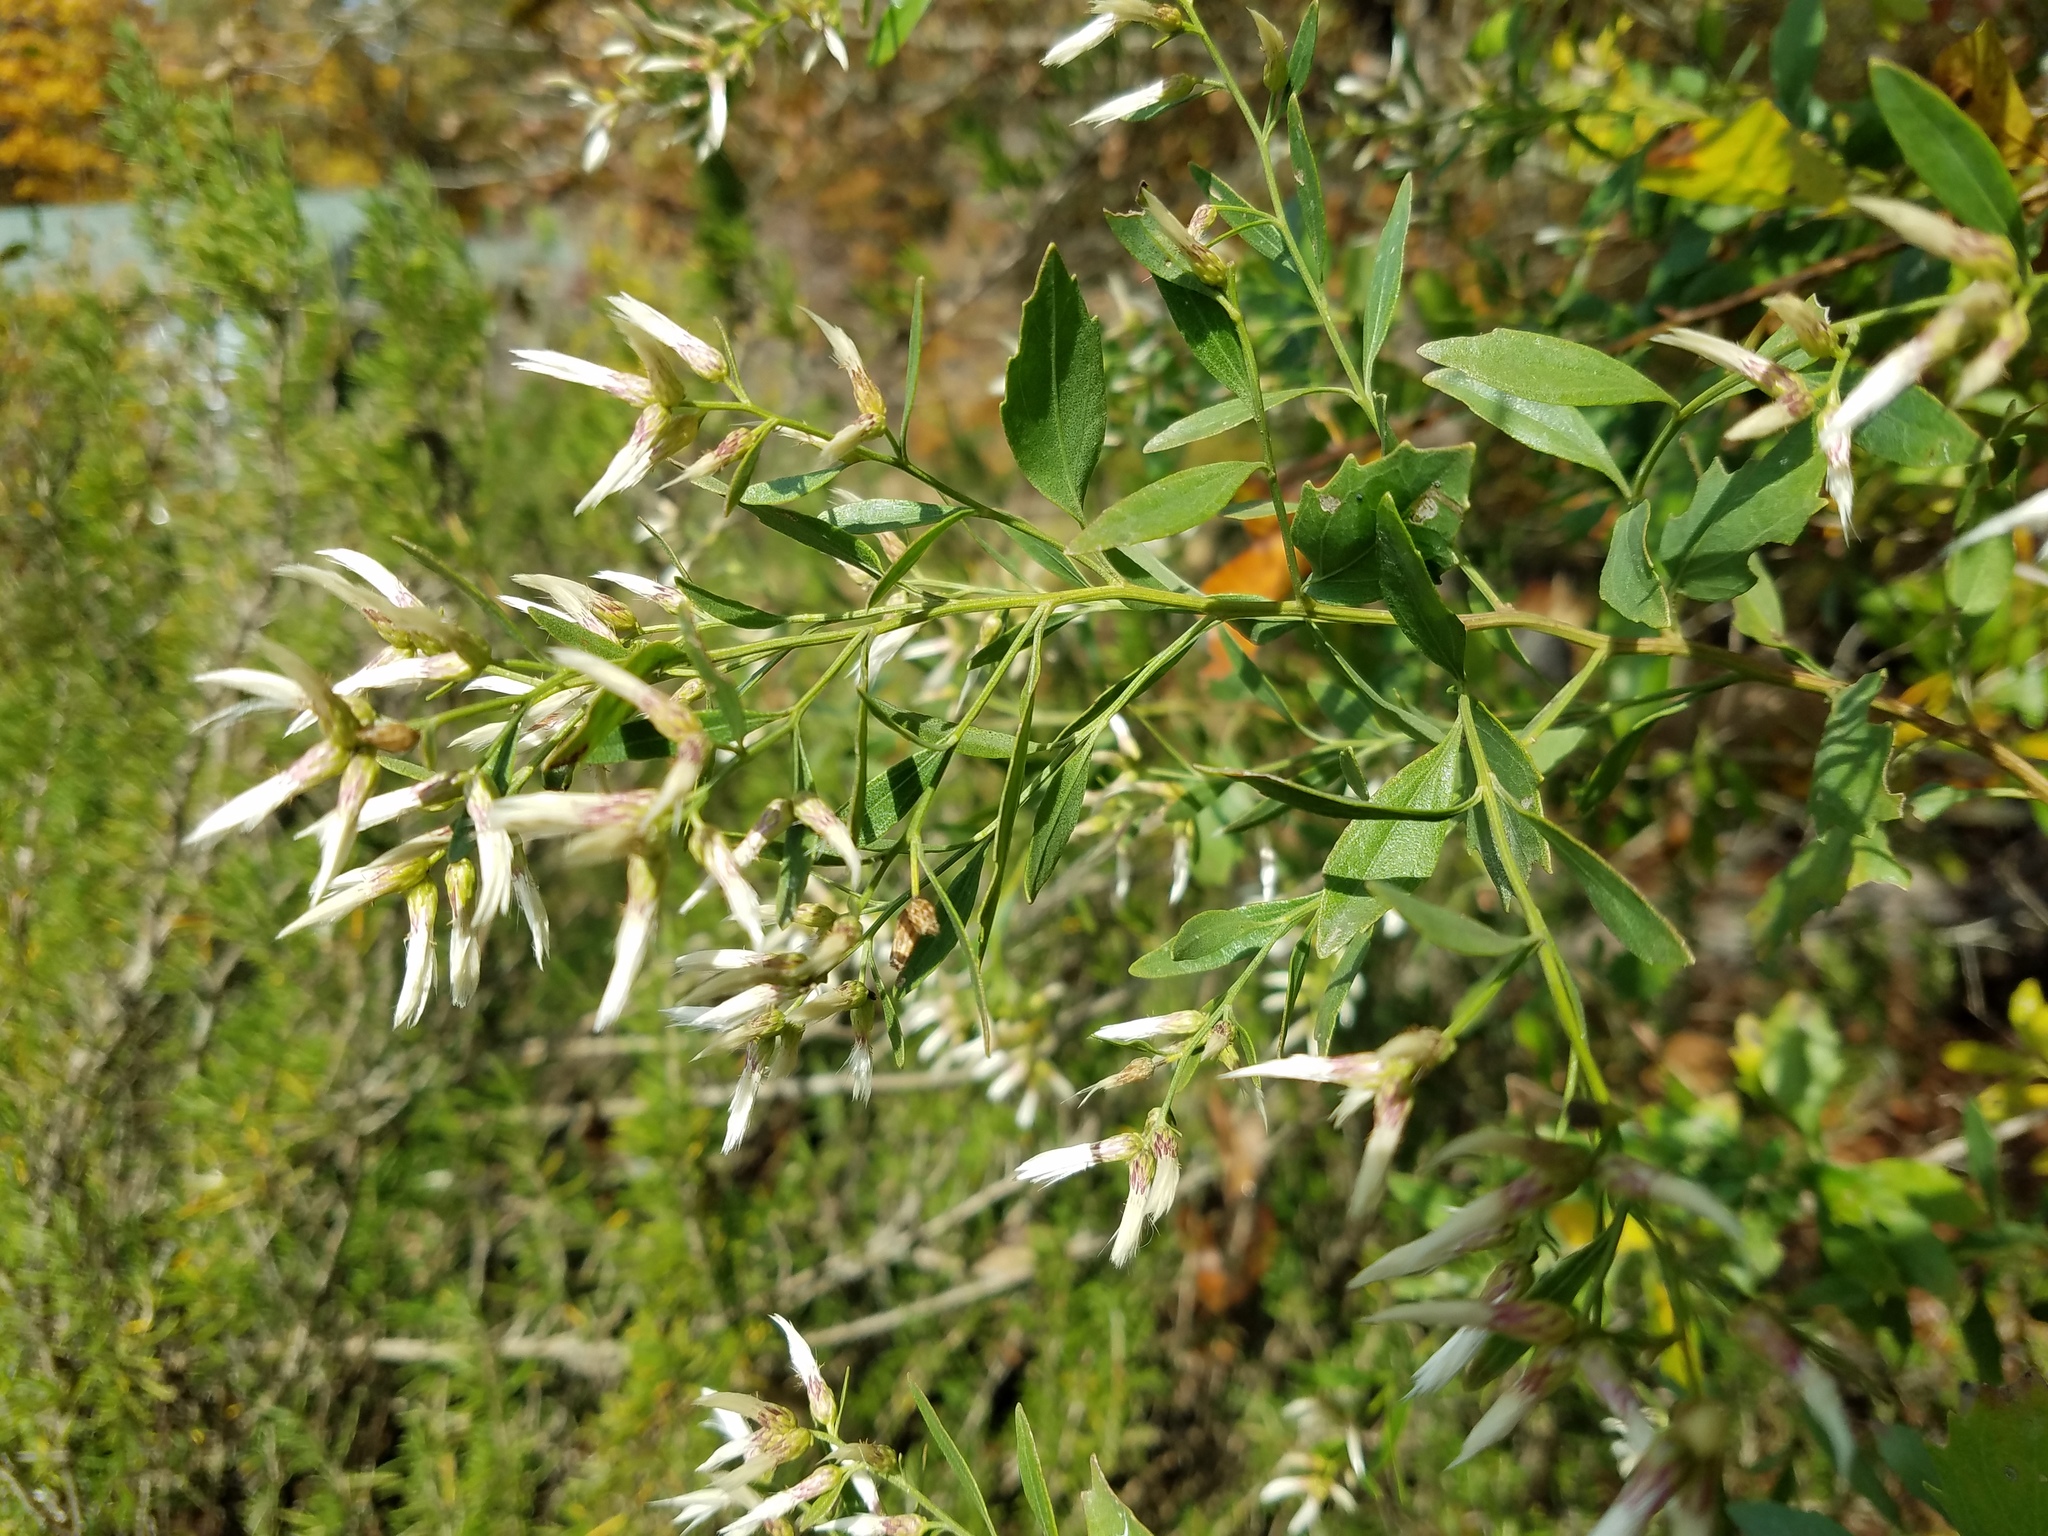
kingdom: Plantae
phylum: Tracheophyta
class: Magnoliopsida
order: Asterales
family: Asteraceae
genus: Baccharis
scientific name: Baccharis halimifolia
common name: Eastern baccharis
